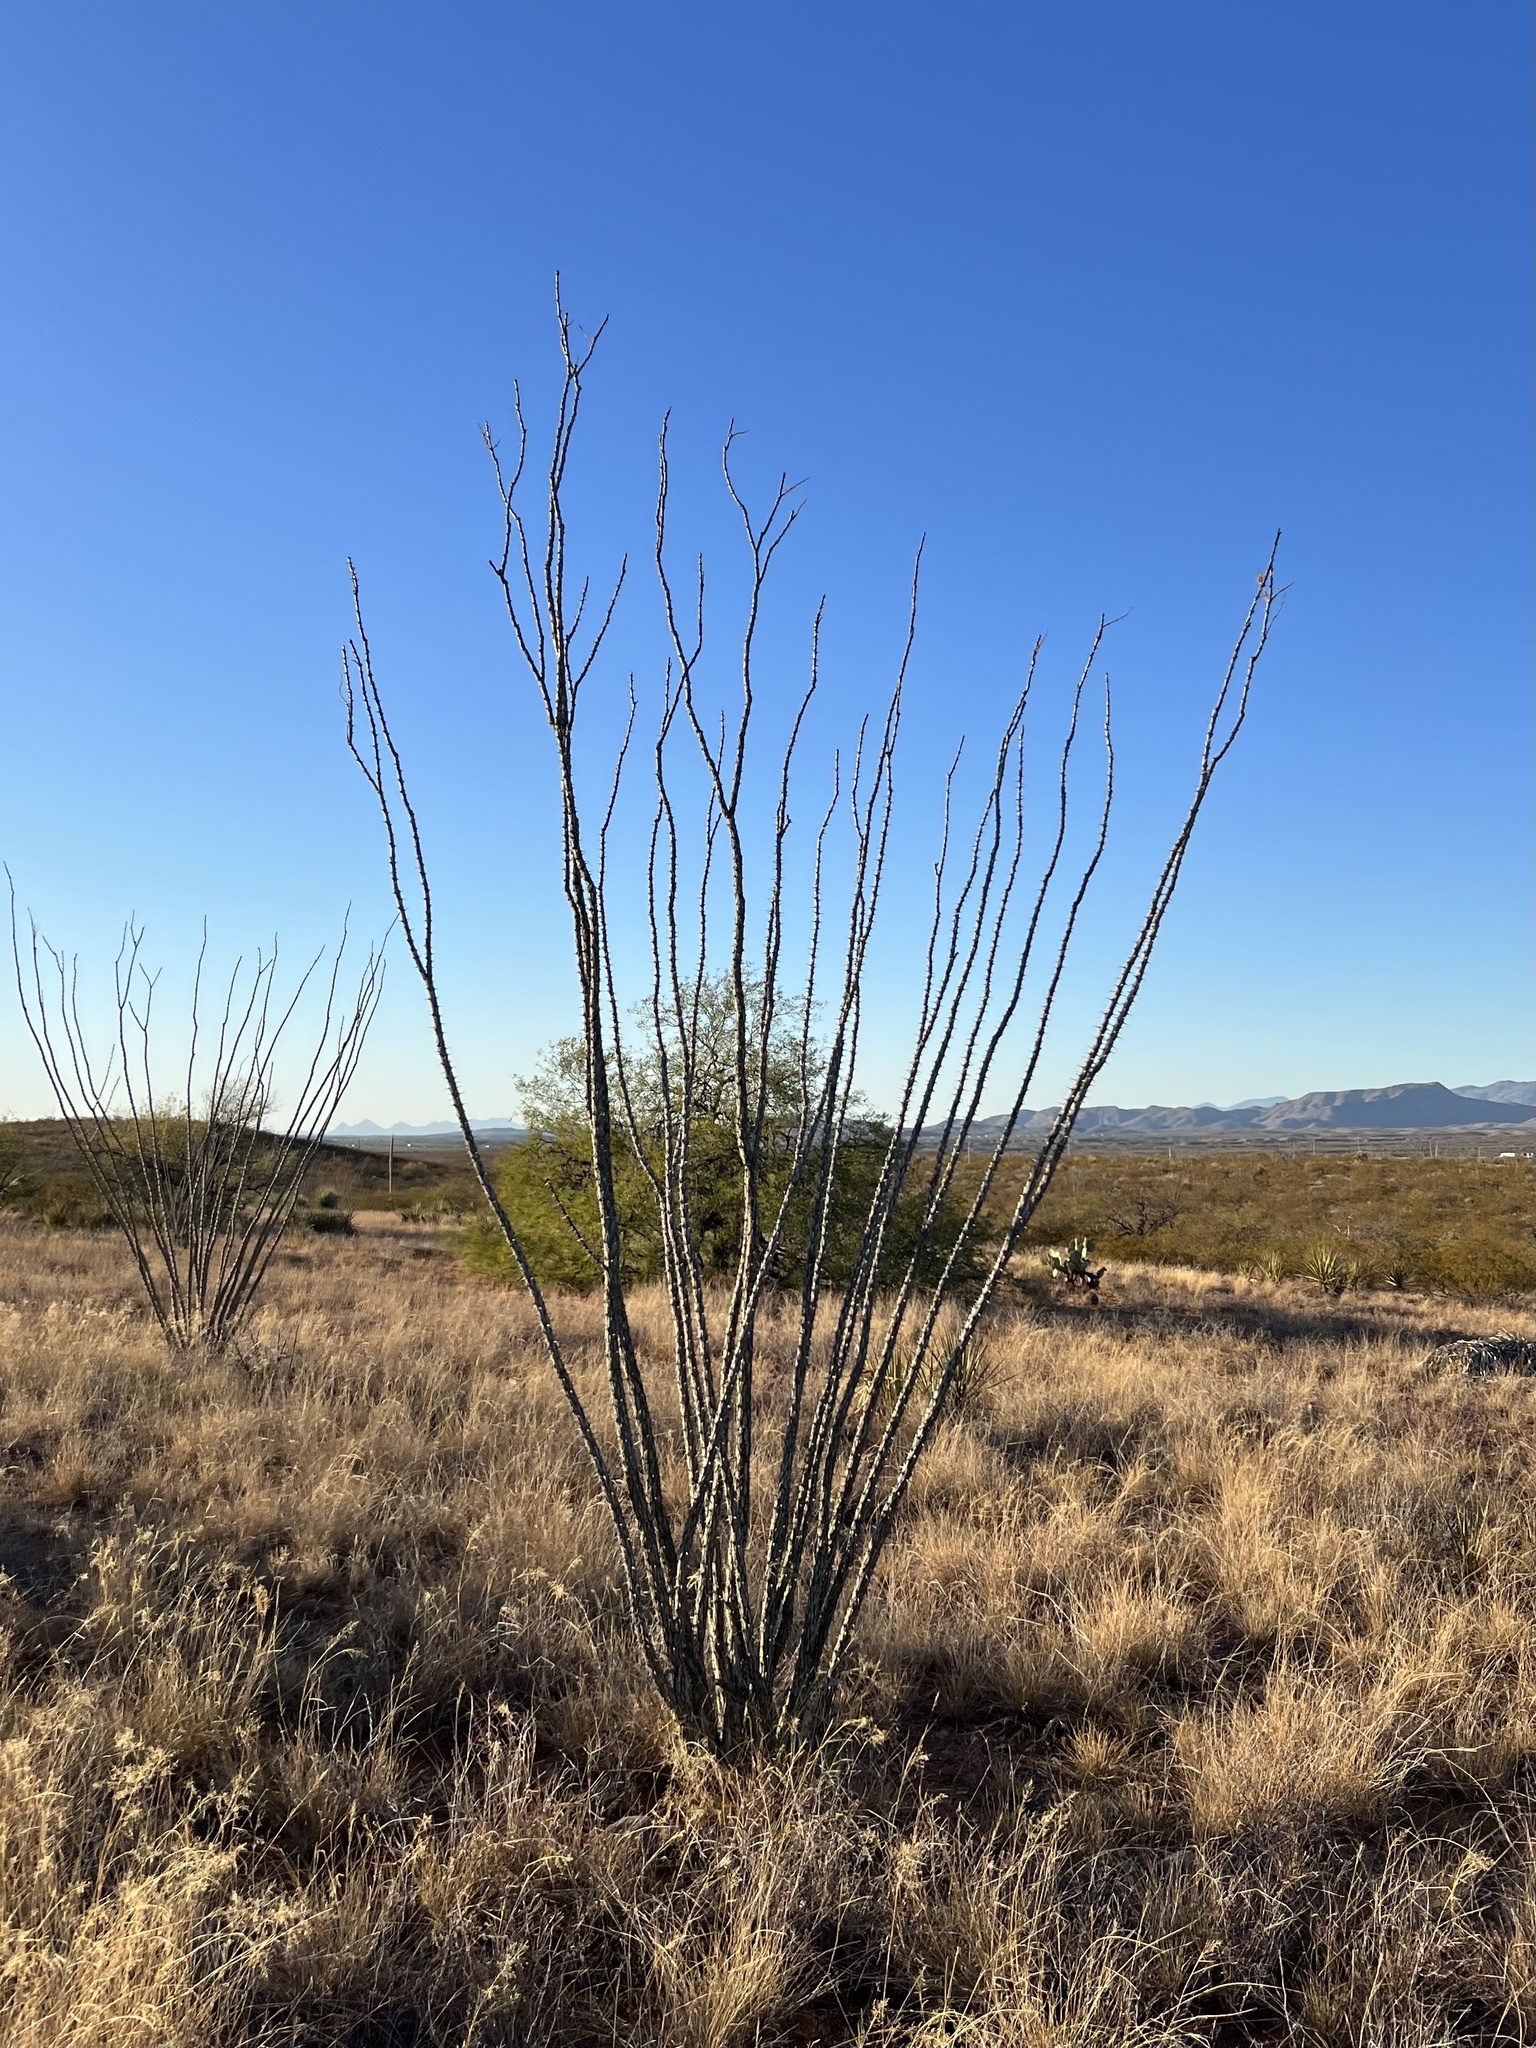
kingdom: Plantae
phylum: Tracheophyta
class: Magnoliopsida
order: Ericales
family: Fouquieriaceae
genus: Fouquieria
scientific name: Fouquieria splendens
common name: Vine-cactus
